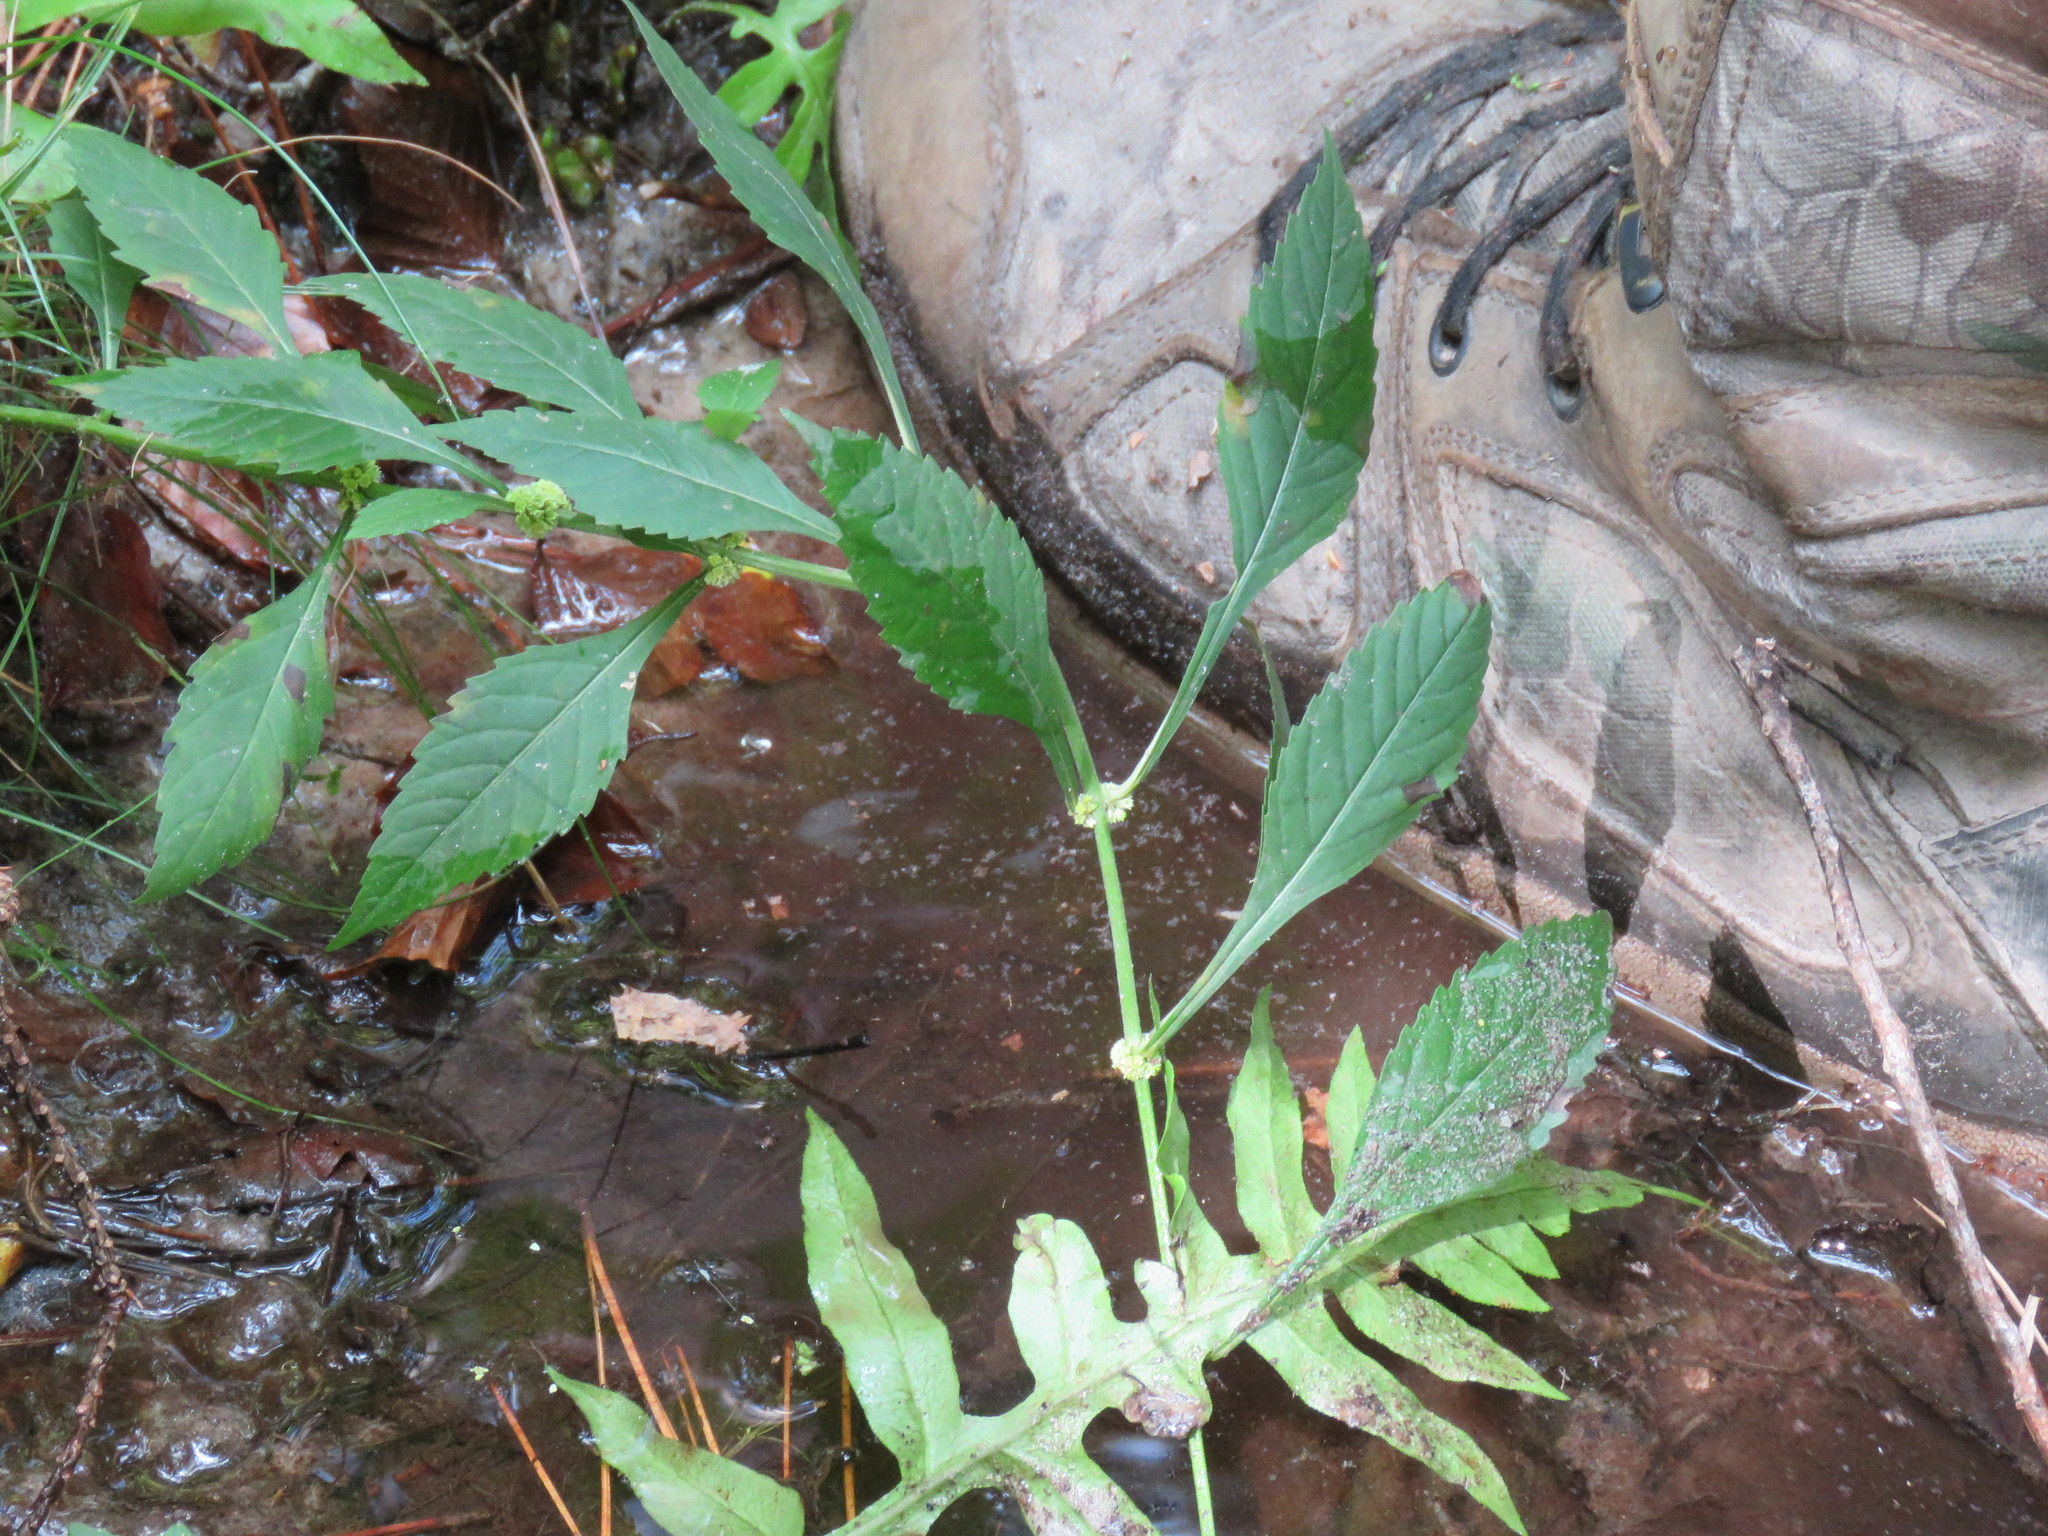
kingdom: Plantae
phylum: Tracheophyta
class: Magnoliopsida
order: Lamiales
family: Lamiaceae
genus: Lycopus
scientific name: Lycopus rubellus
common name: Stalked bugleweed
